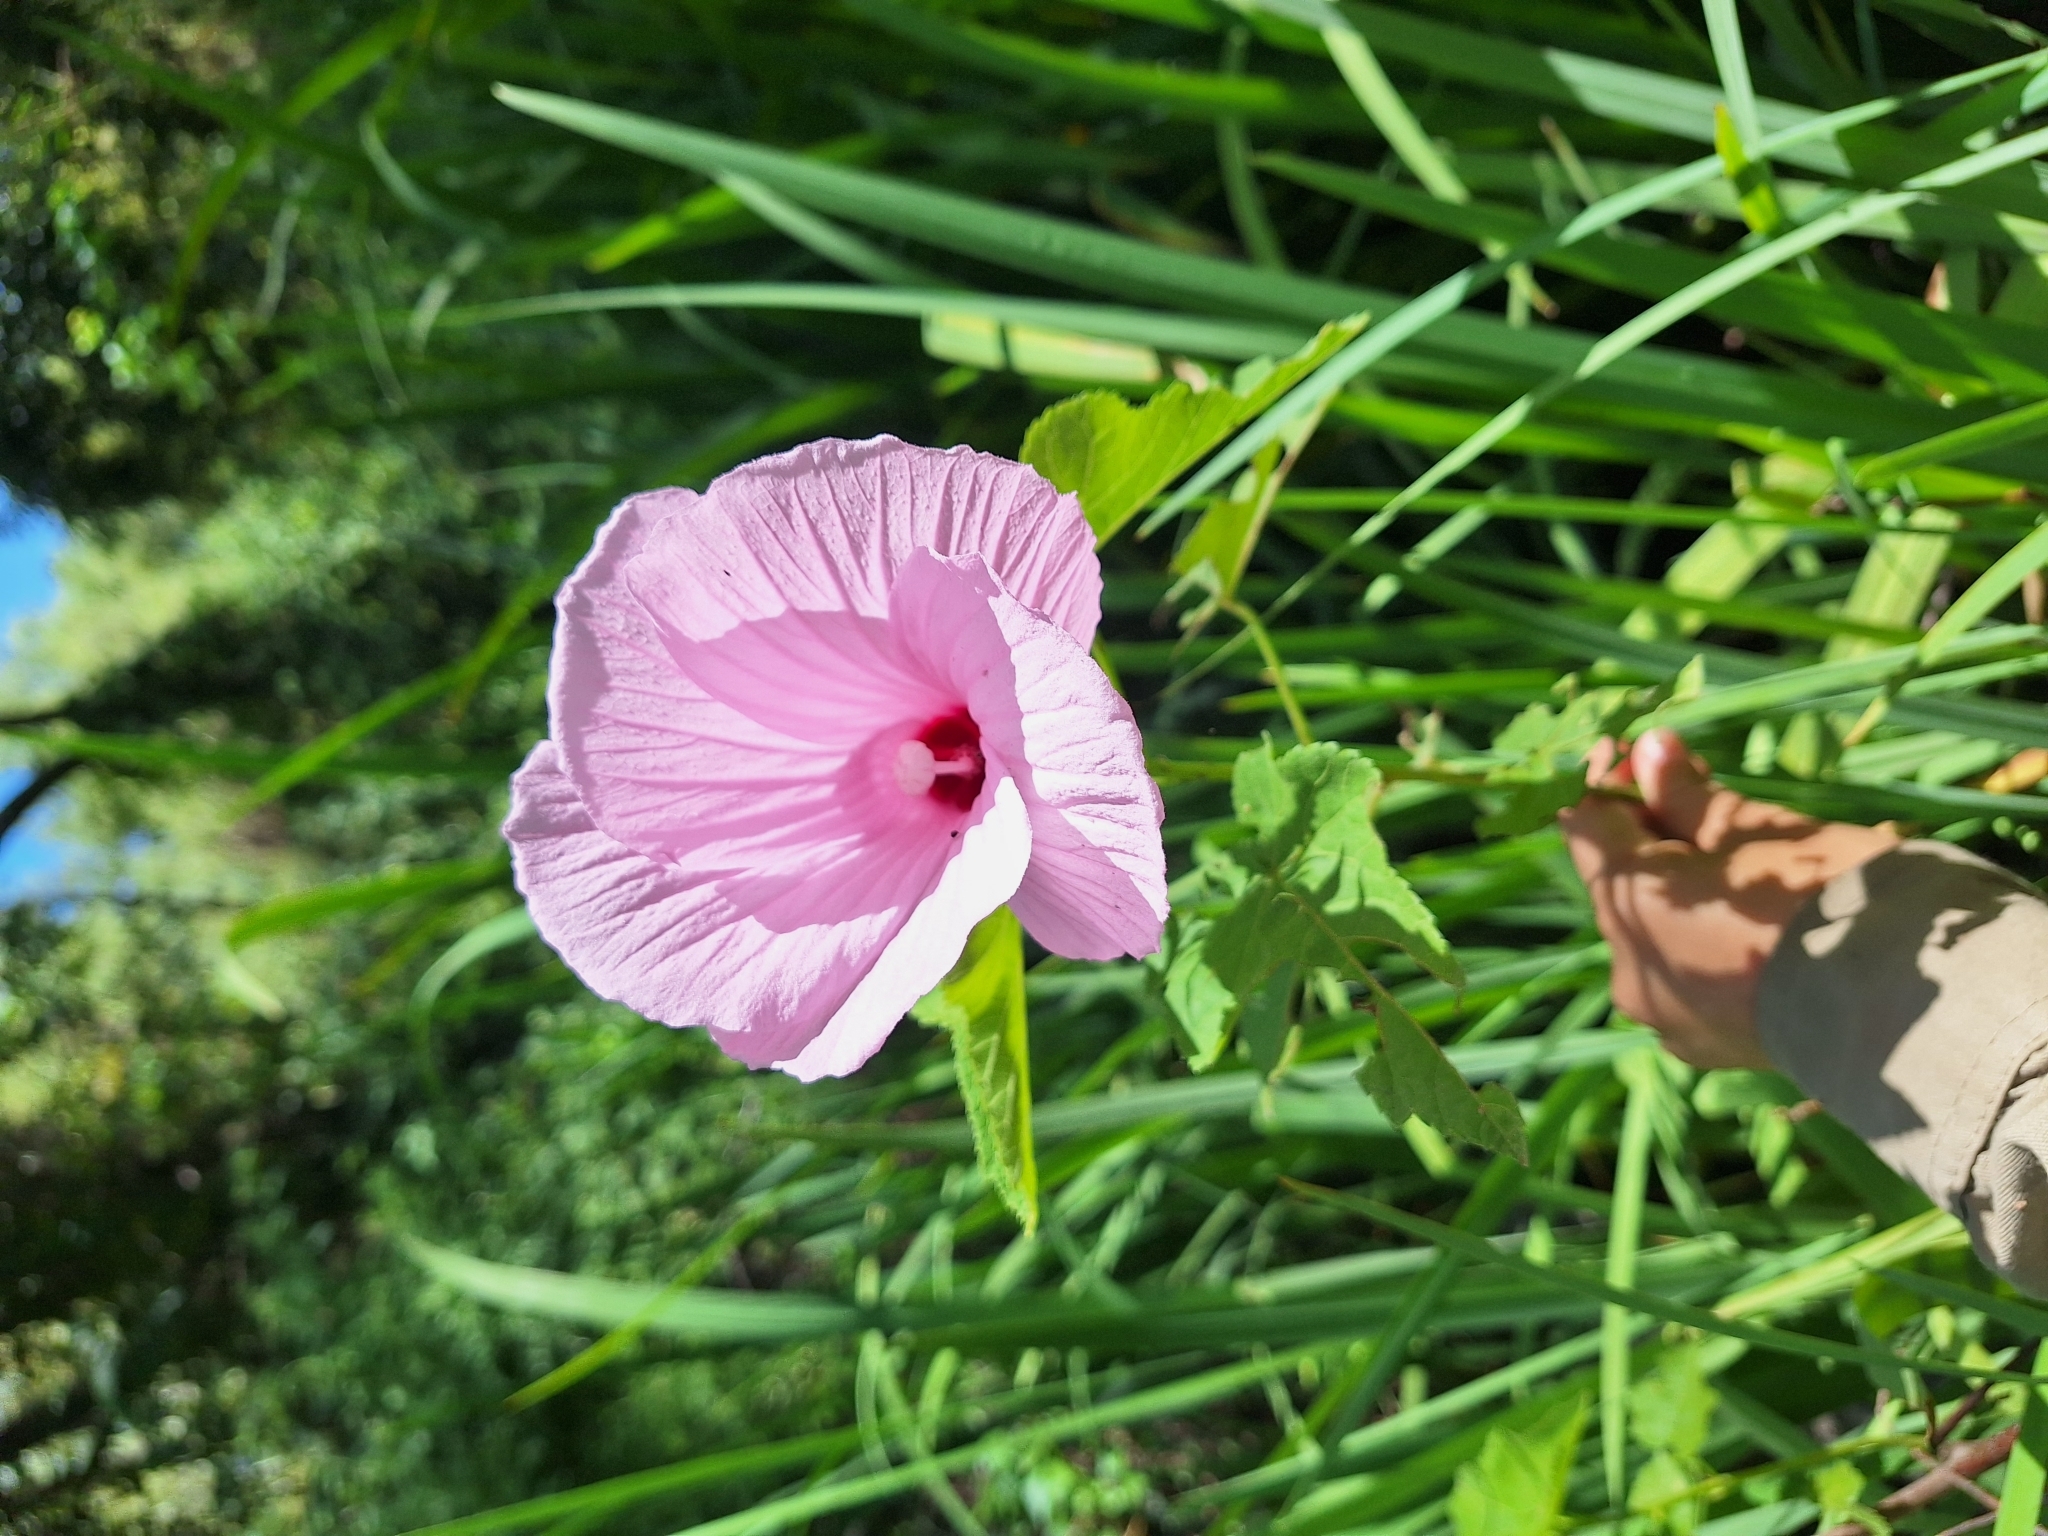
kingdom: Plantae
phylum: Tracheophyta
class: Magnoliopsida
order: Malvales
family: Malvaceae
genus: Hibiscus
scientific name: Hibiscus striatus
